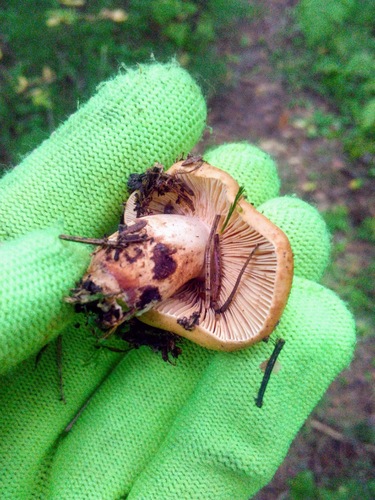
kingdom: Fungi
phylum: Basidiomycota
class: Agaricomycetes
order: Agaricales
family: Tricholomataceae
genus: Tricholoma
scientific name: Tricholoma fulvum
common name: Birch knight
